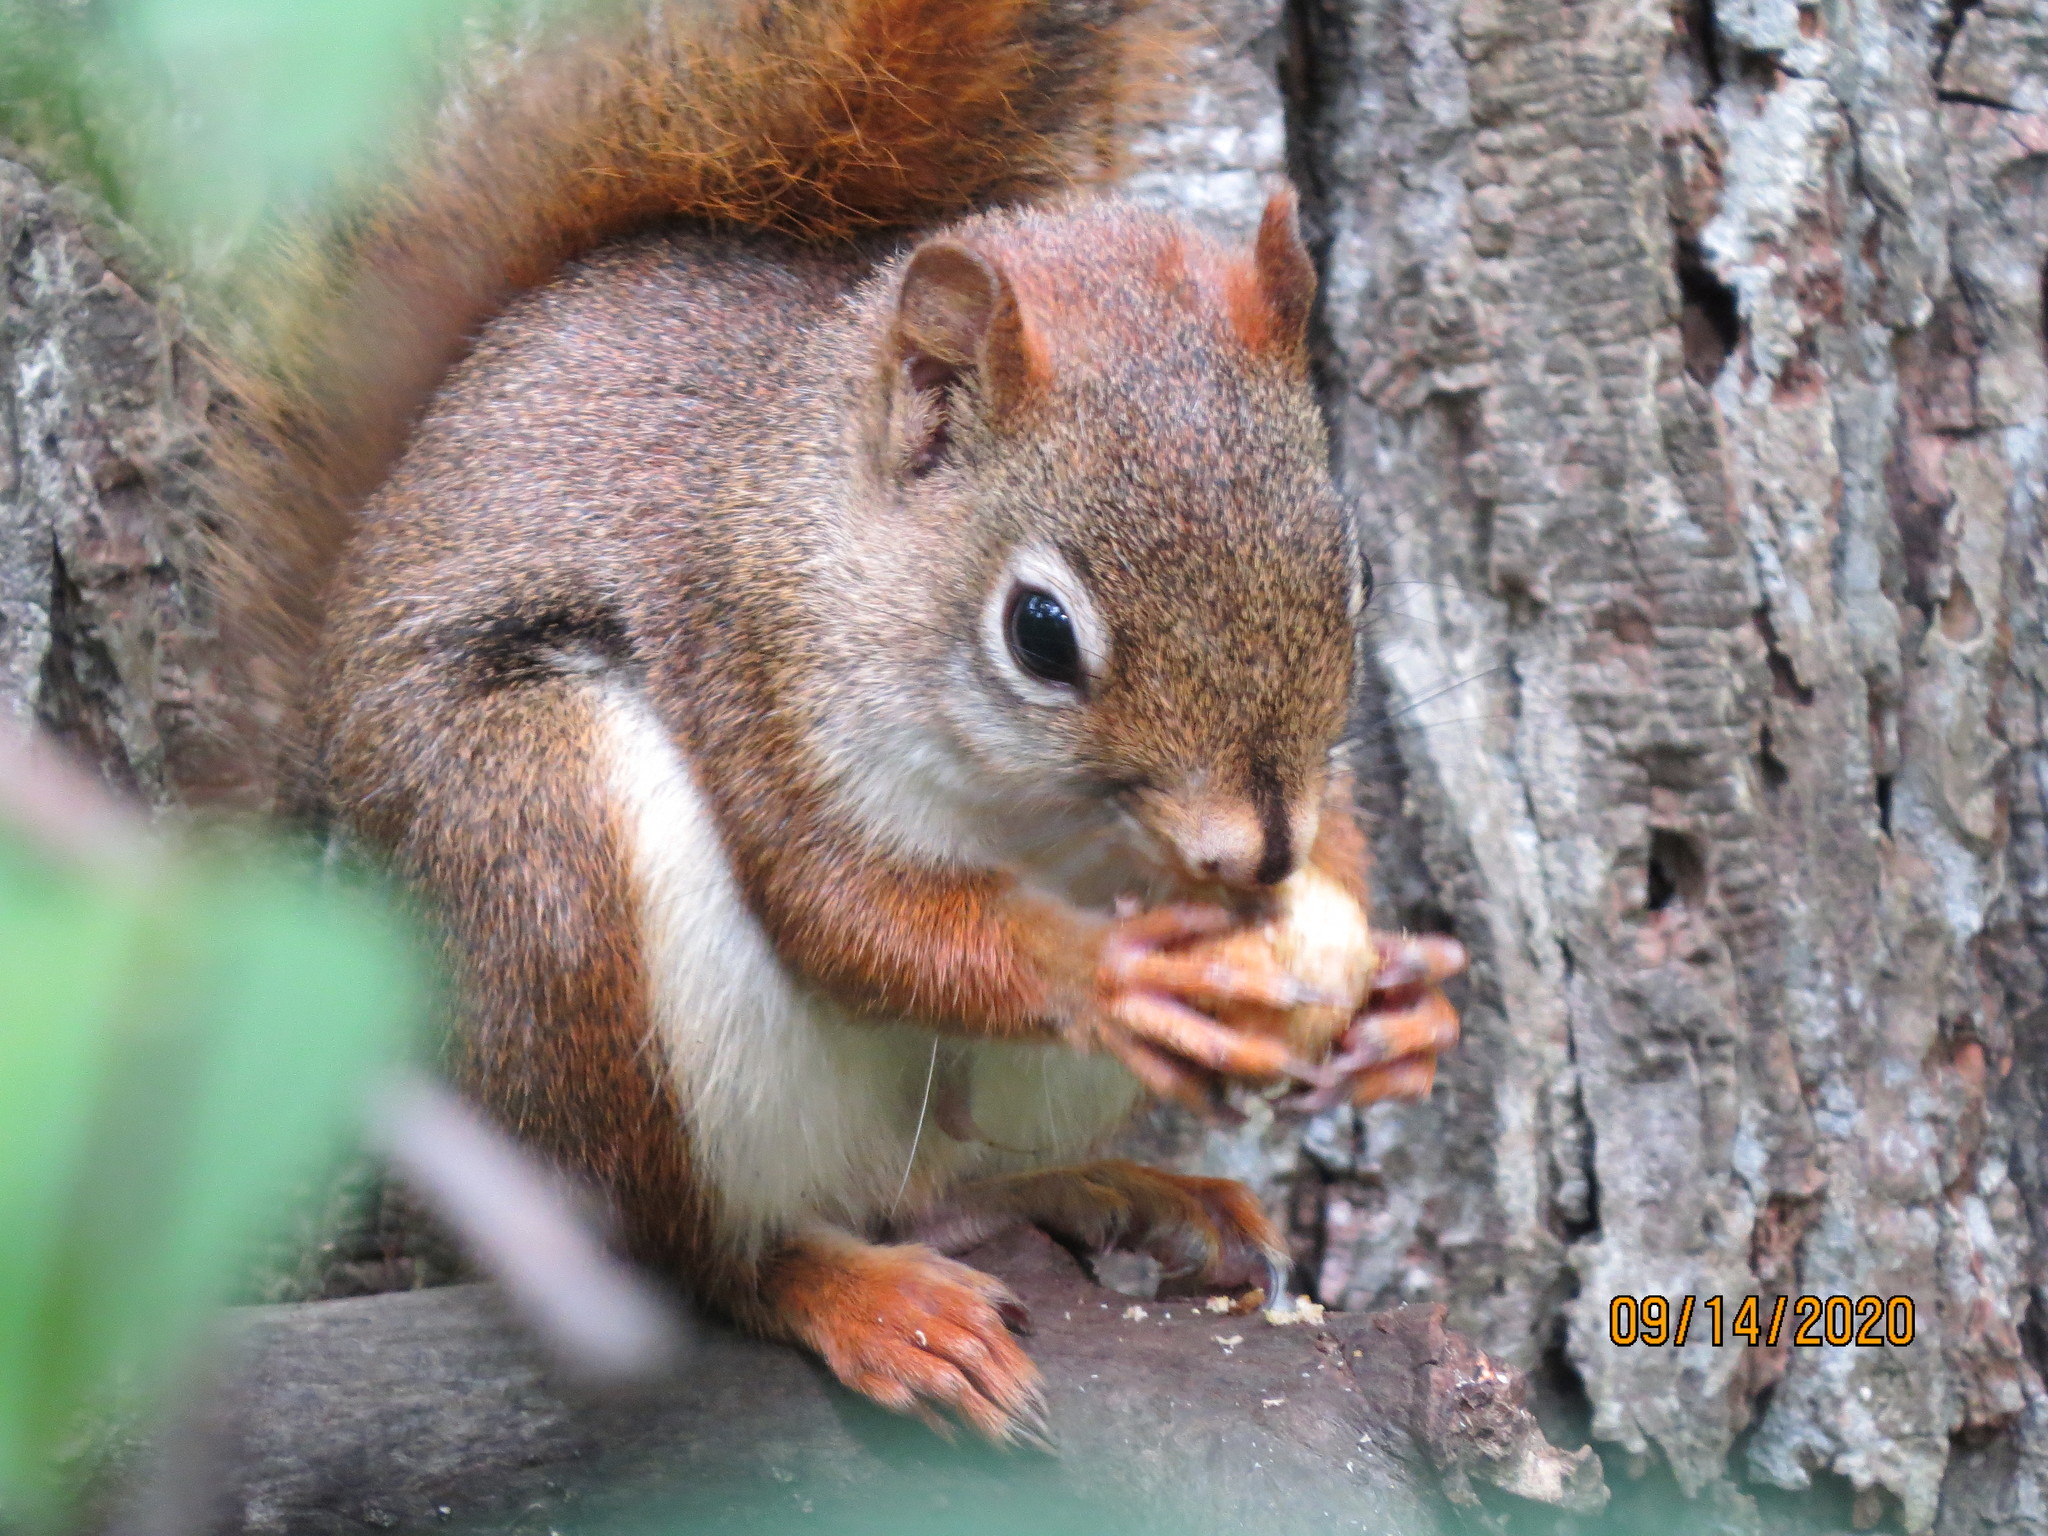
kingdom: Animalia
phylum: Chordata
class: Mammalia
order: Rodentia
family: Sciuridae
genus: Tamiasciurus
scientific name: Tamiasciurus hudsonicus
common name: Red squirrel
